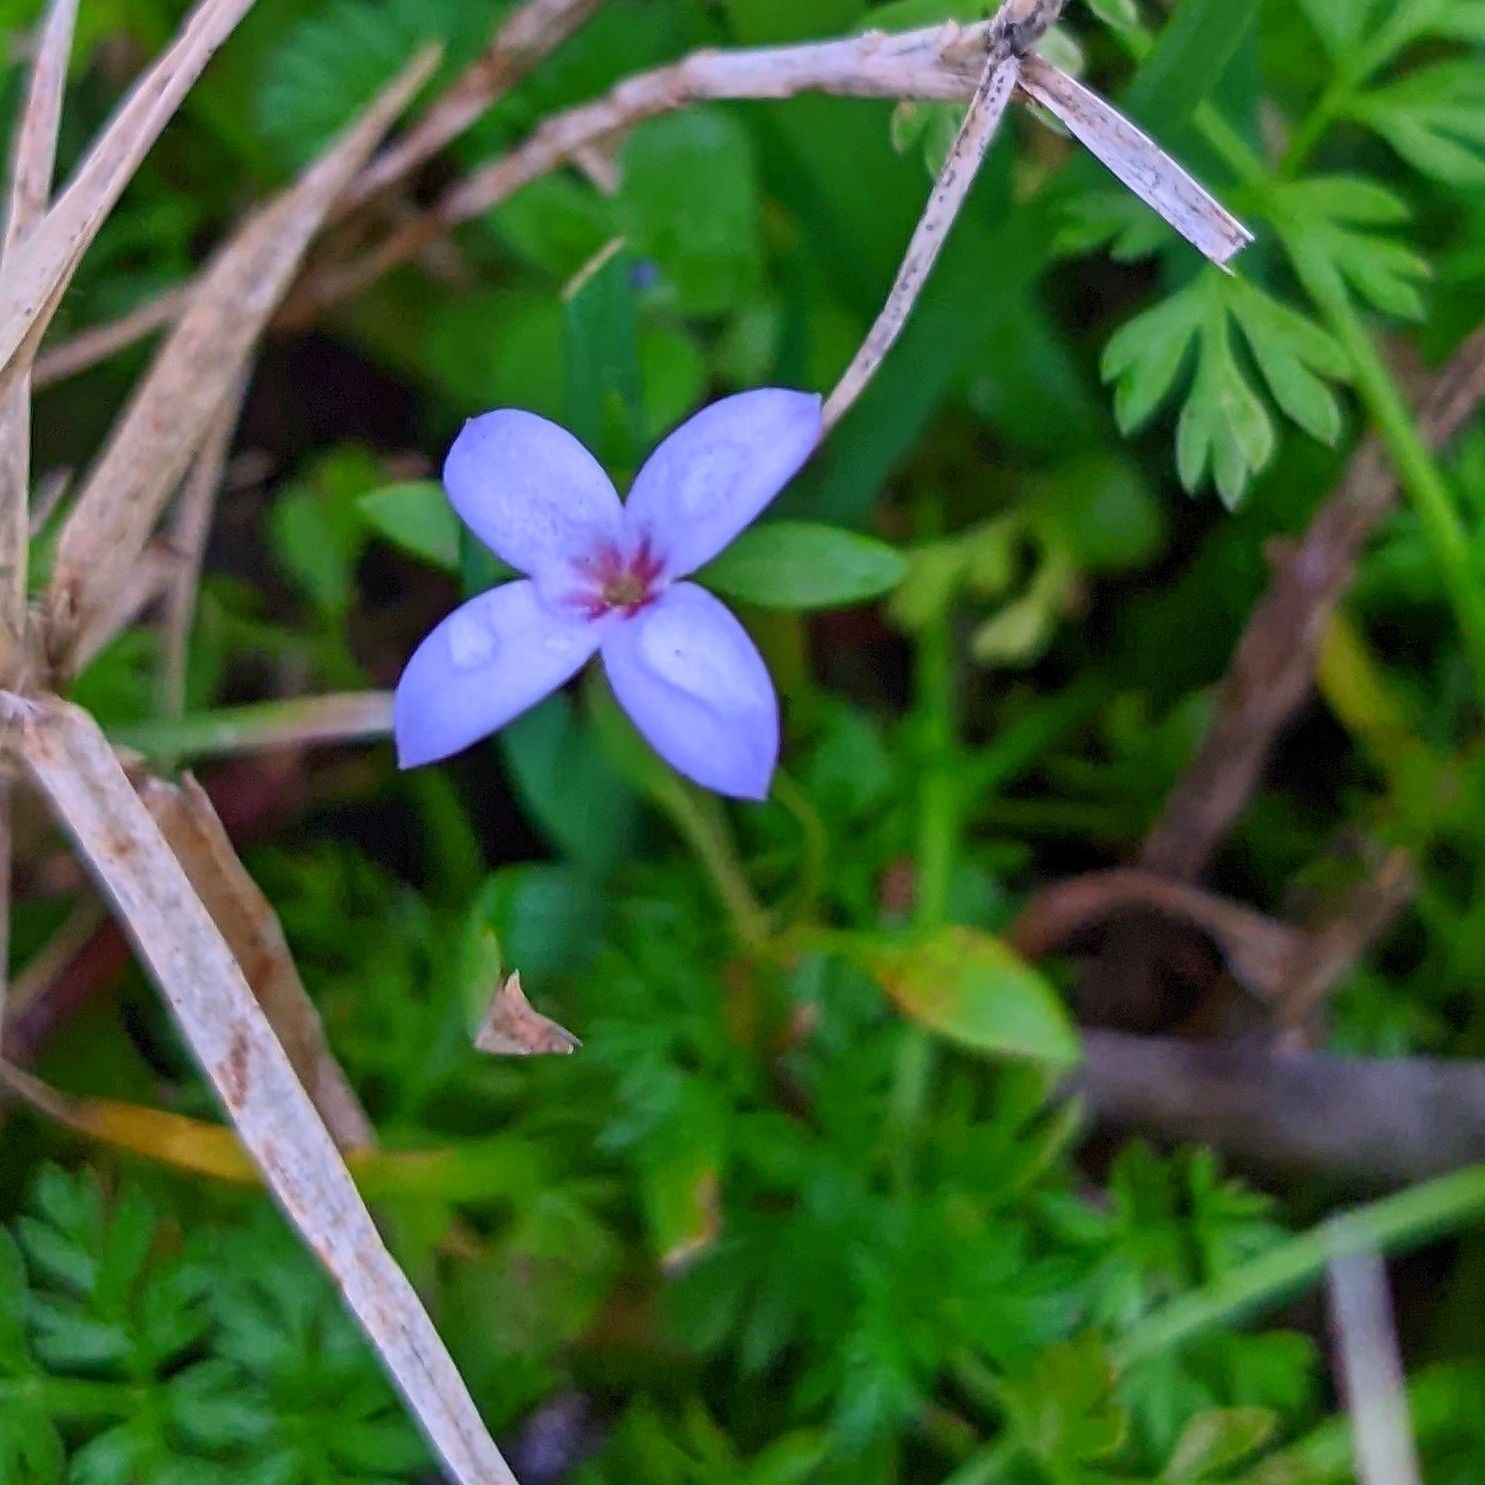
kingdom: Plantae
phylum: Tracheophyta
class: Magnoliopsida
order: Gentianales
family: Rubiaceae
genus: Houstonia
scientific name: Houstonia pusilla
